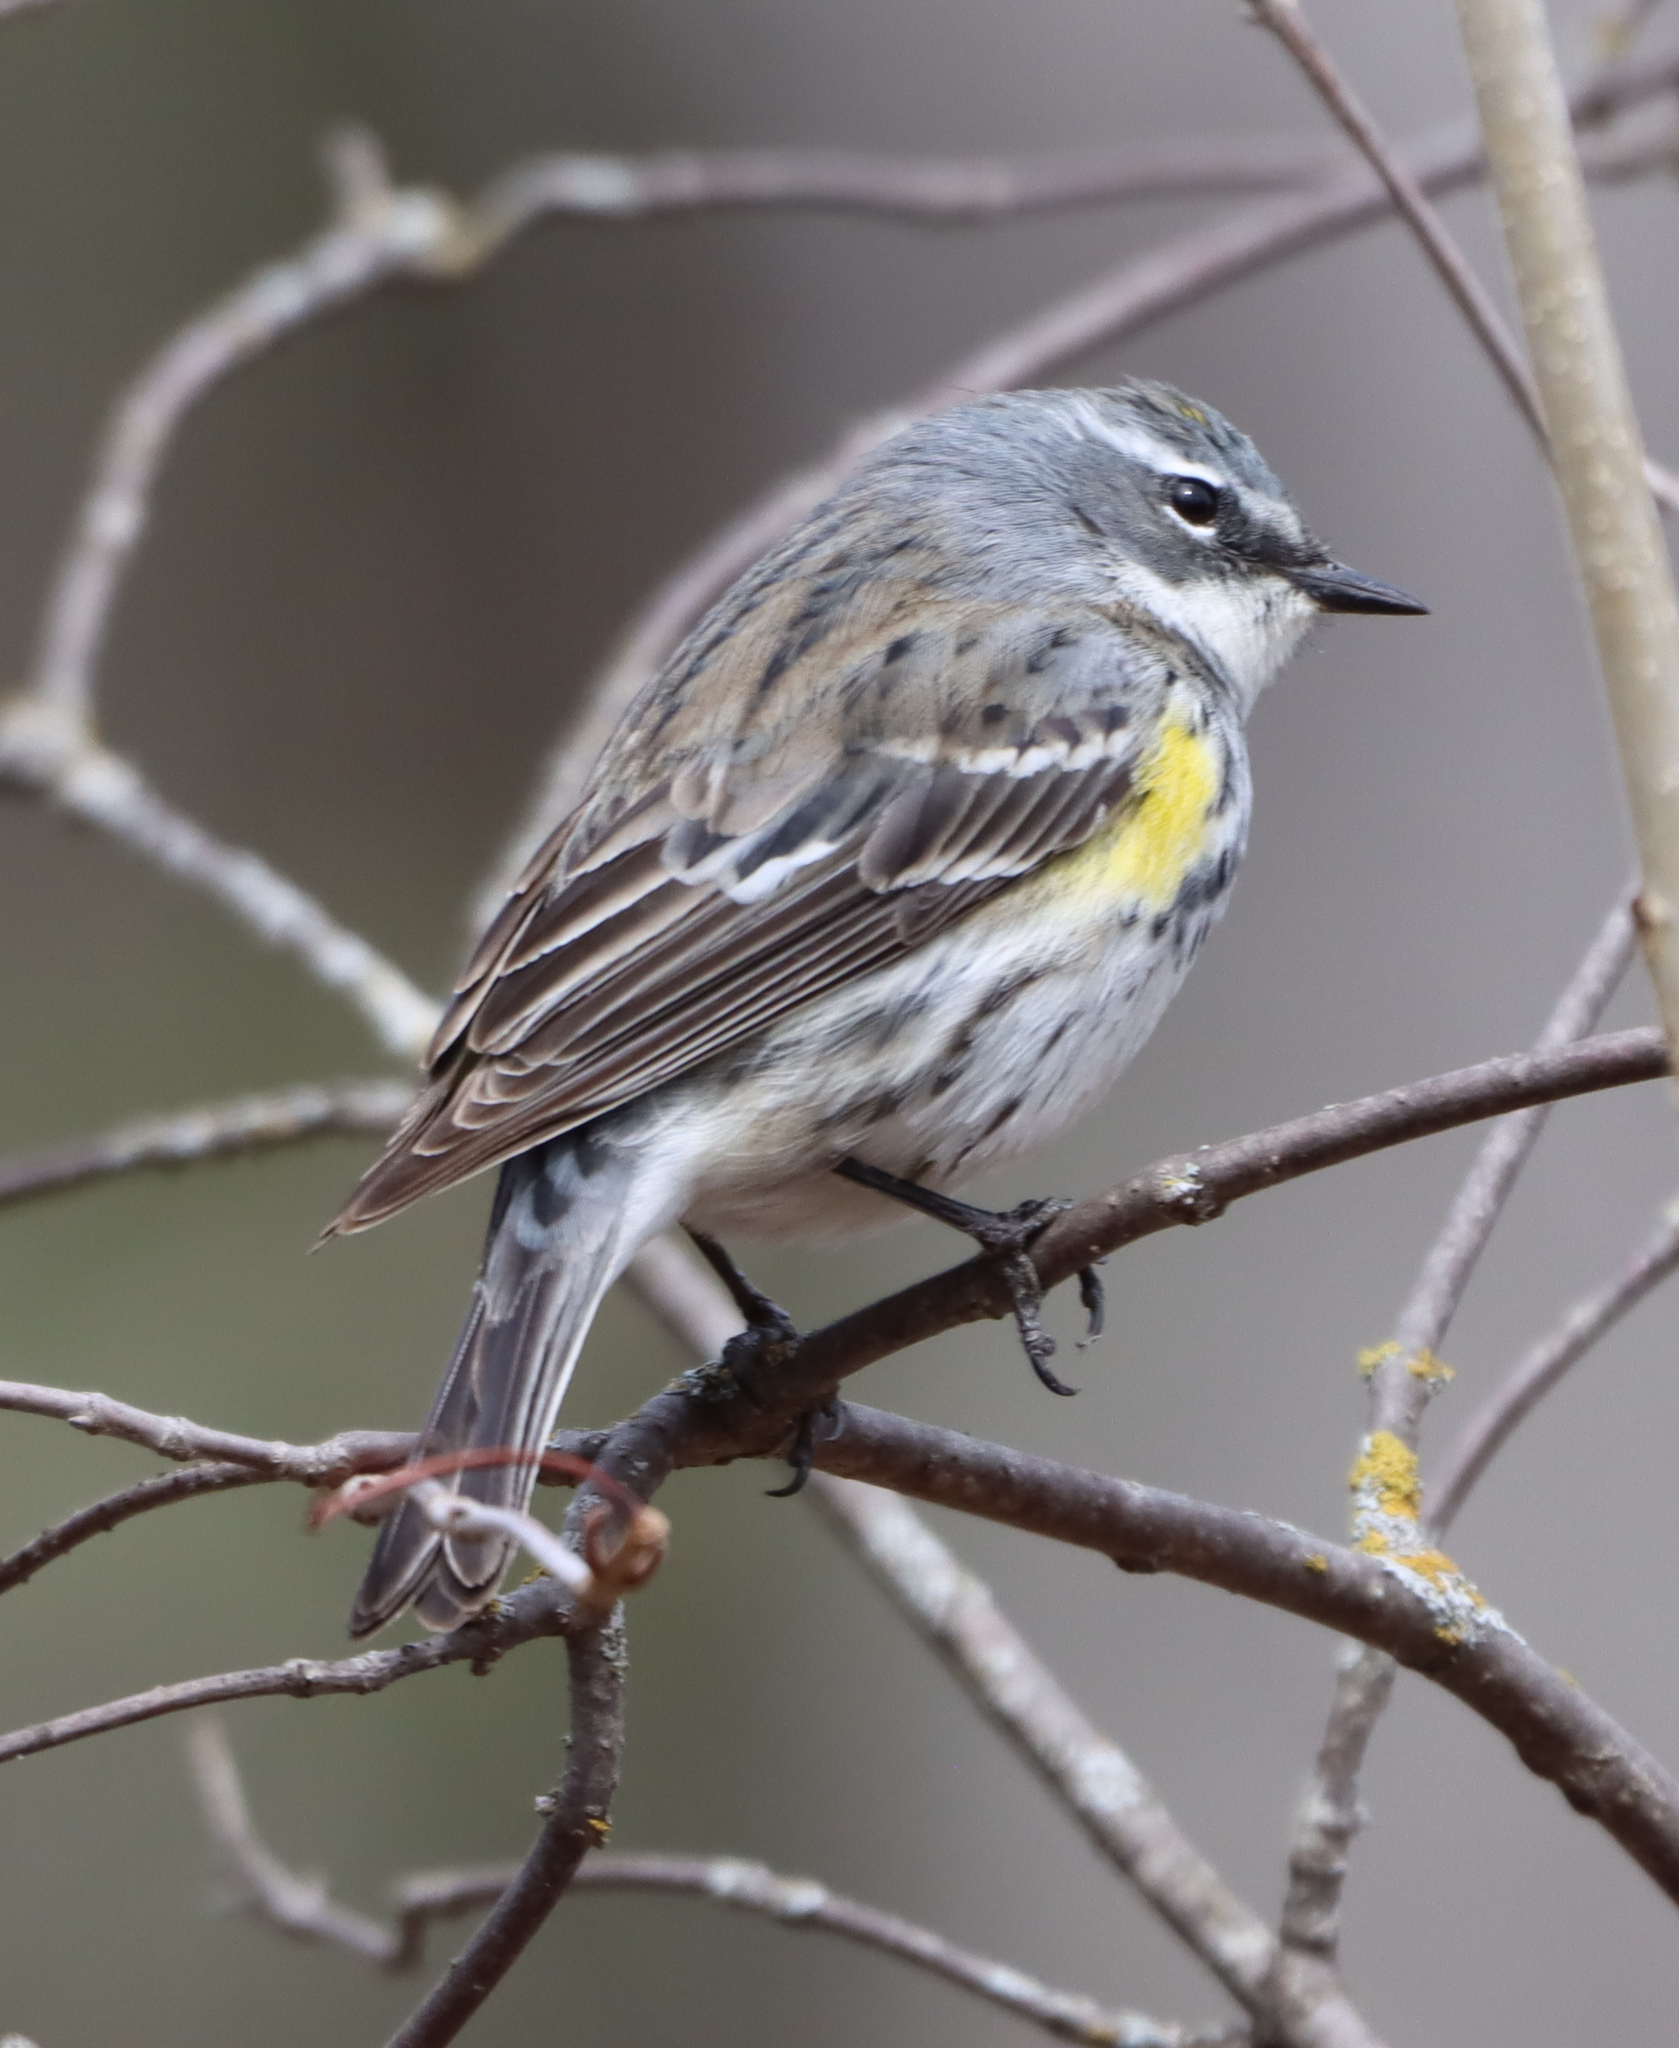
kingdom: Animalia
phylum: Chordata
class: Aves
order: Passeriformes
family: Parulidae
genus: Setophaga
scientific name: Setophaga coronata
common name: Myrtle warbler
